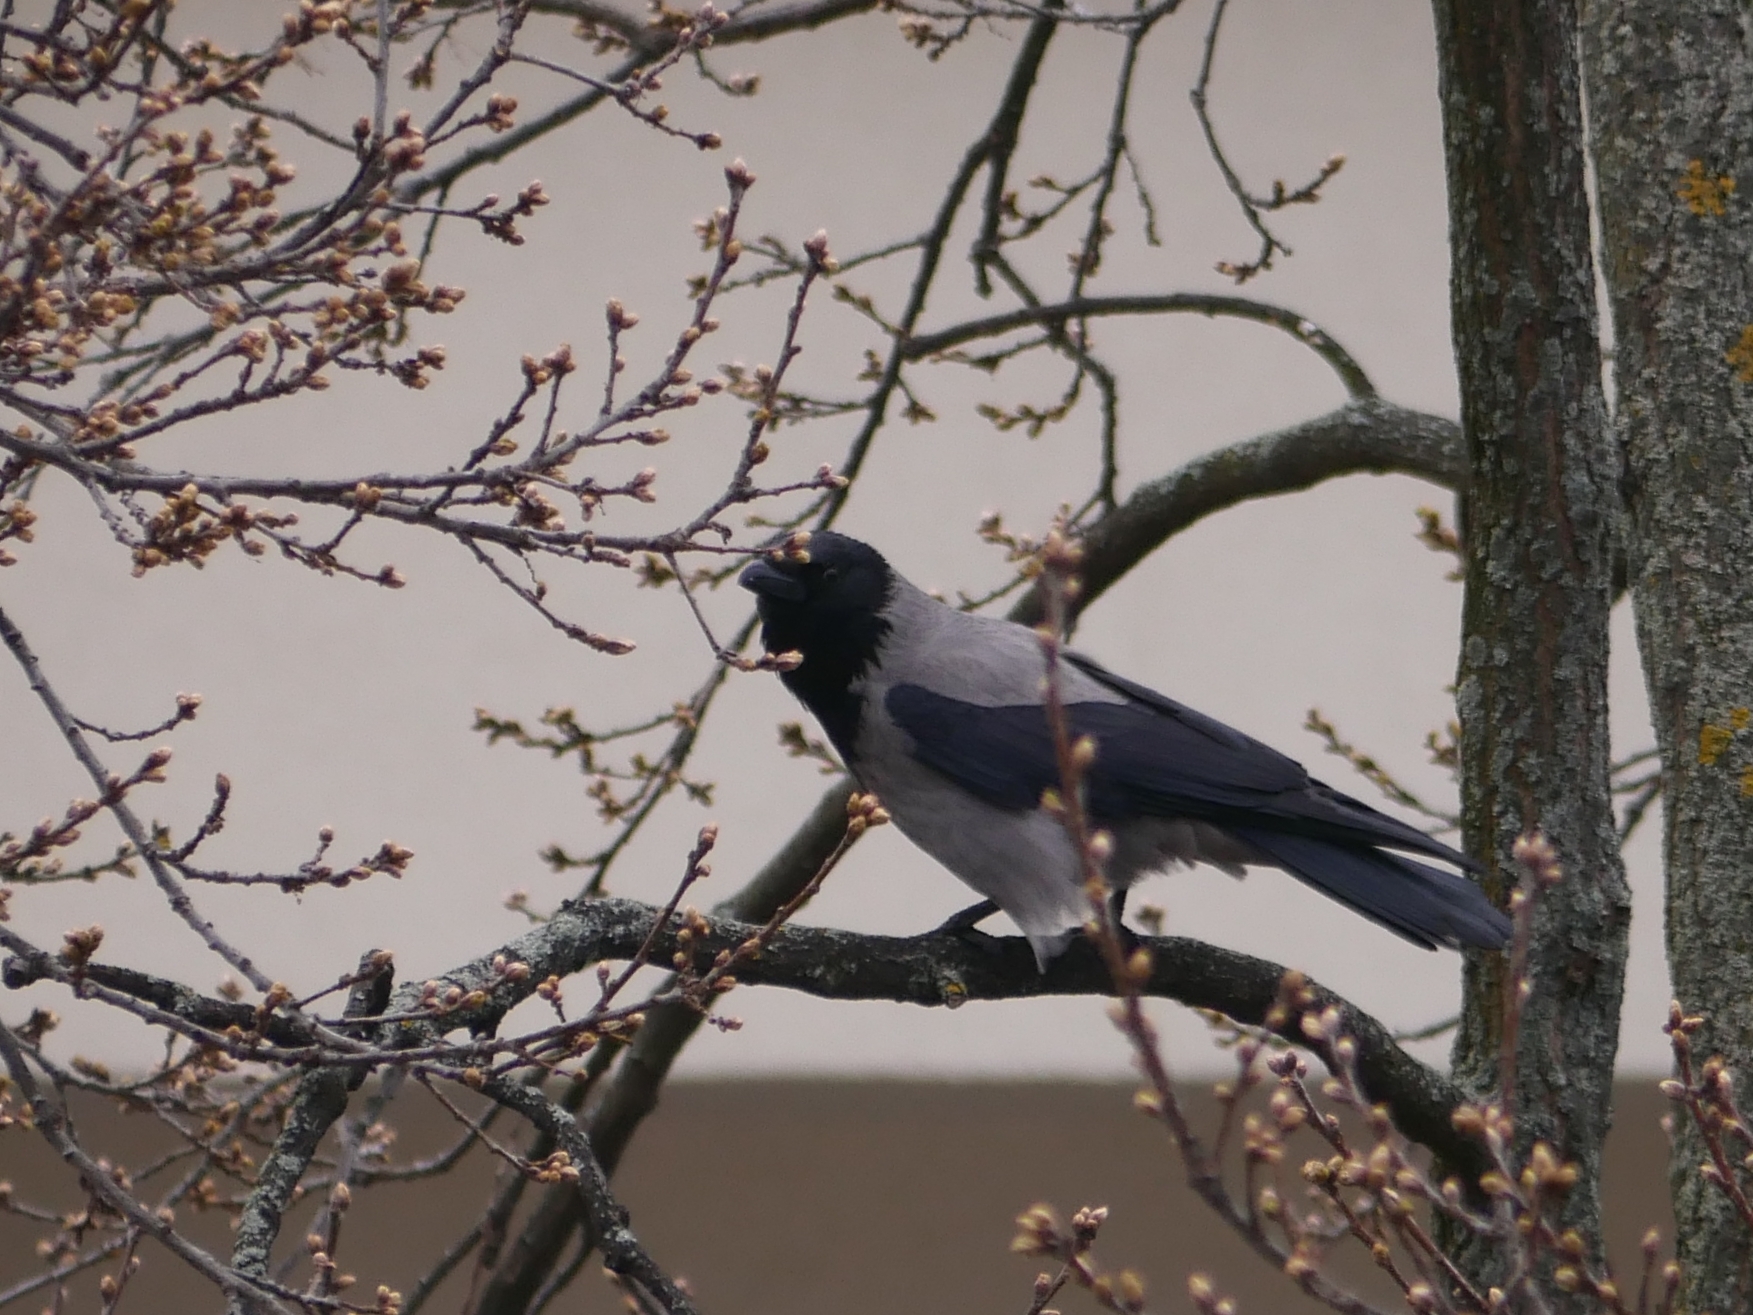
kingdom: Animalia
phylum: Chordata
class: Aves
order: Passeriformes
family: Corvidae
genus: Corvus
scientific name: Corvus cornix
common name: Hooded crow
